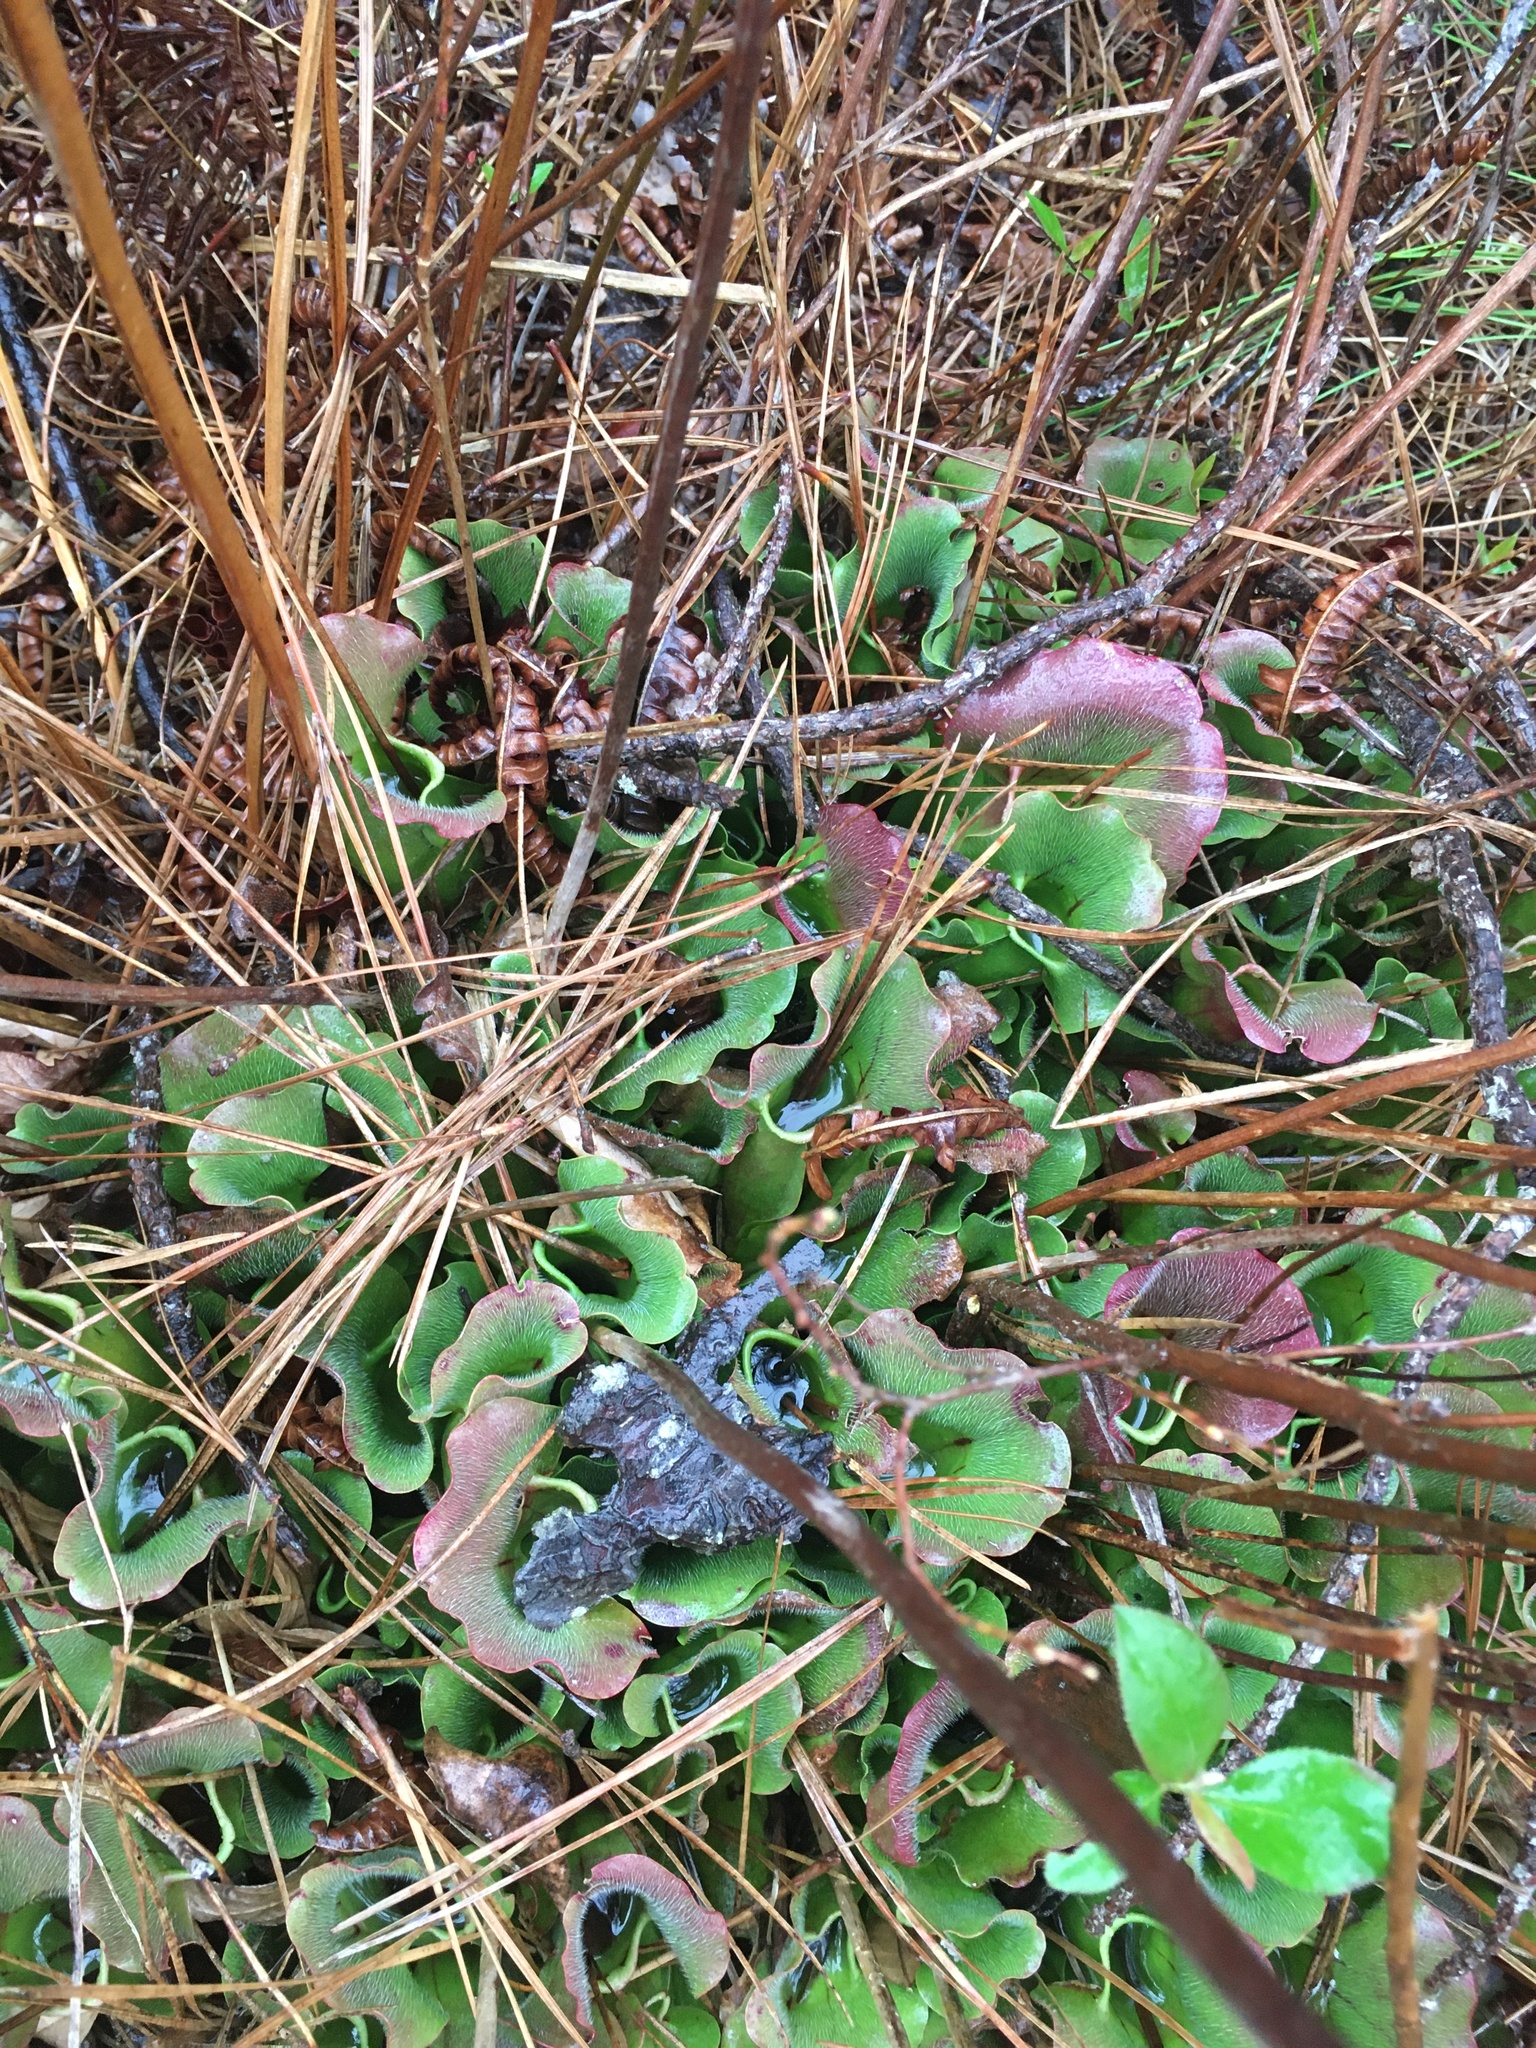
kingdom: Plantae
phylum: Tracheophyta
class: Magnoliopsida
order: Ericales
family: Sarraceniaceae
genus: Sarracenia
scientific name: Sarracenia purpurea
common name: Pitcherplant
